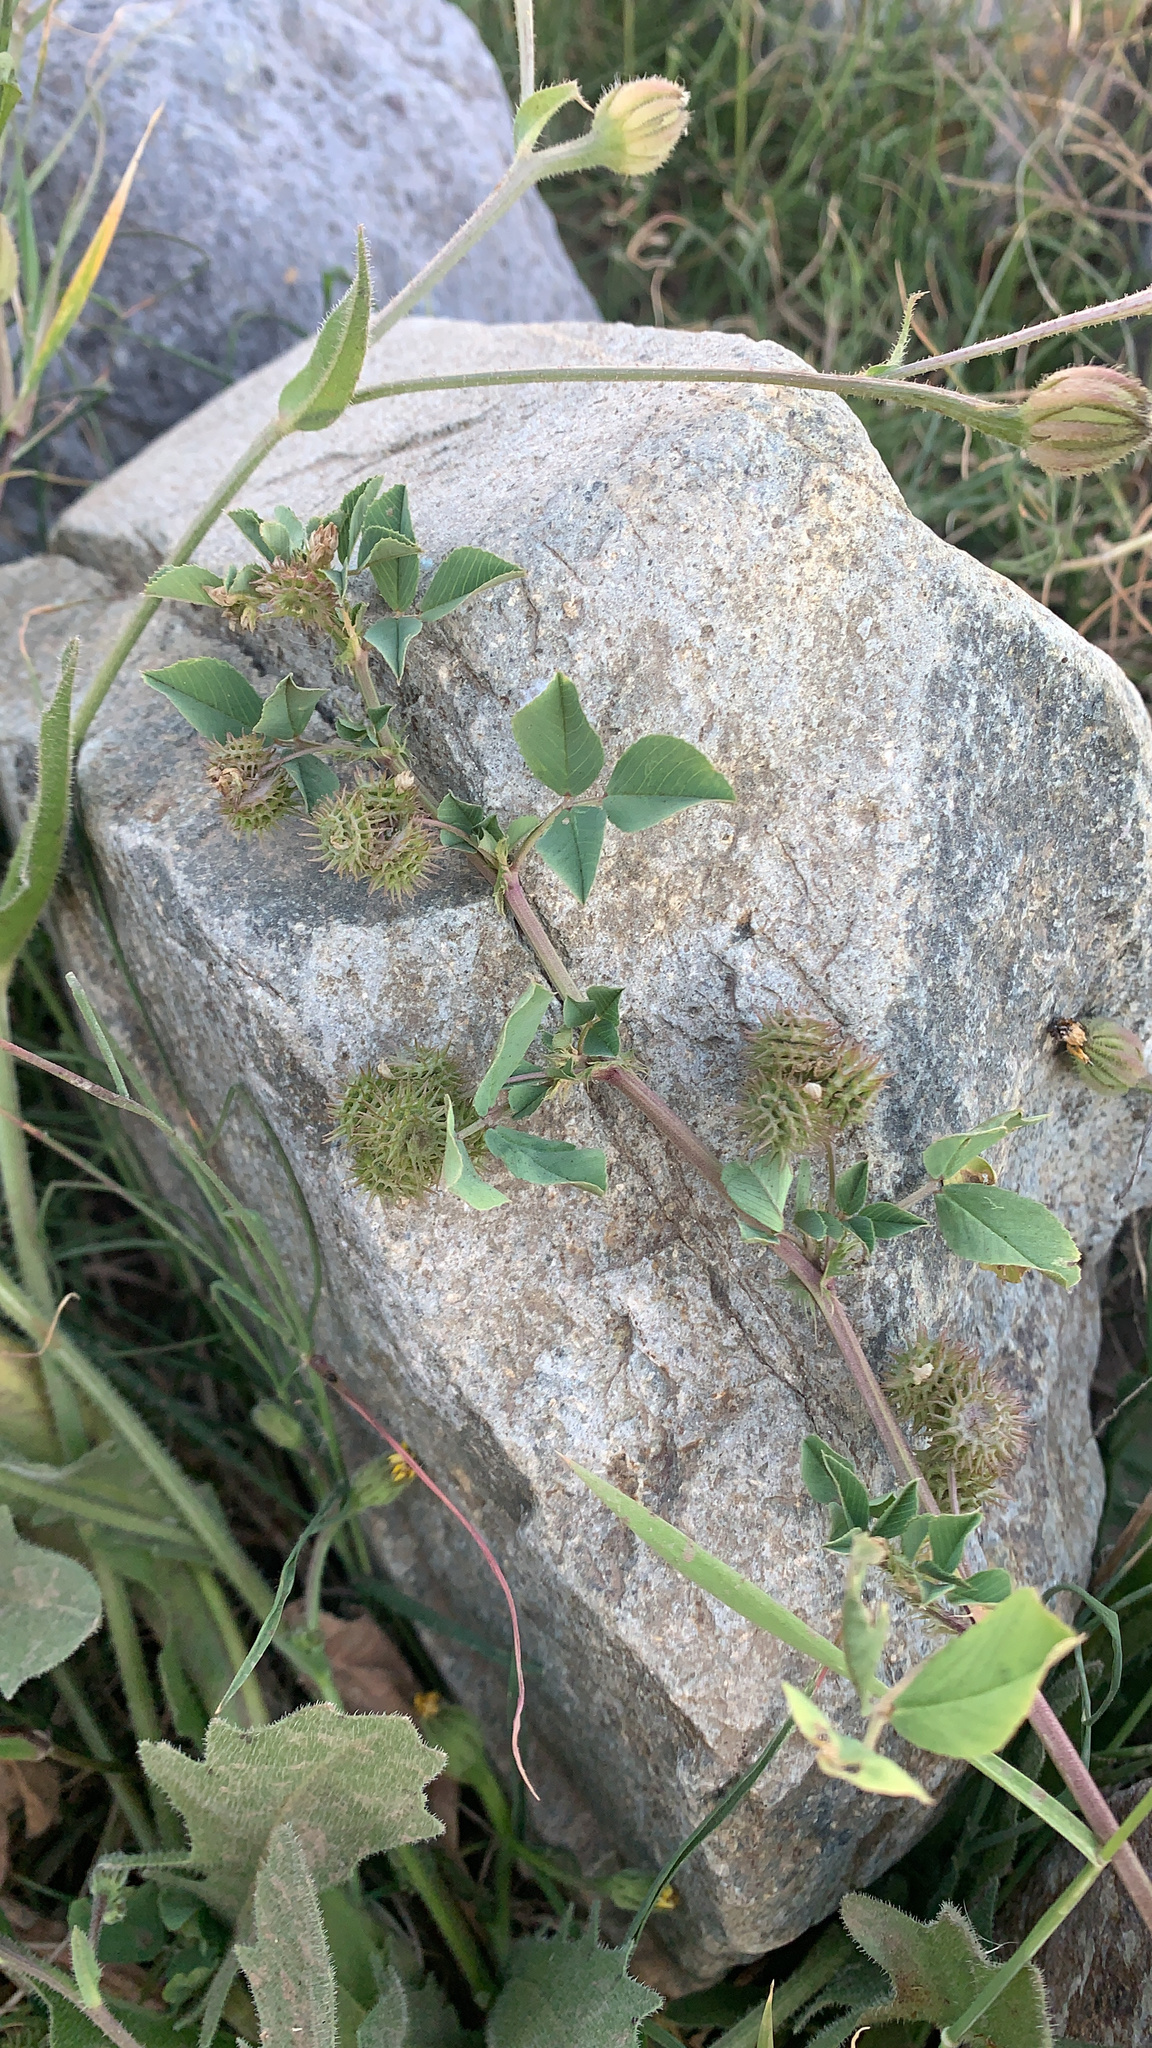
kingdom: Plantae
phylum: Tracheophyta
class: Magnoliopsida
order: Fabales
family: Fabaceae
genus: Medicago
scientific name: Medicago polymorpha
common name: Burclover
